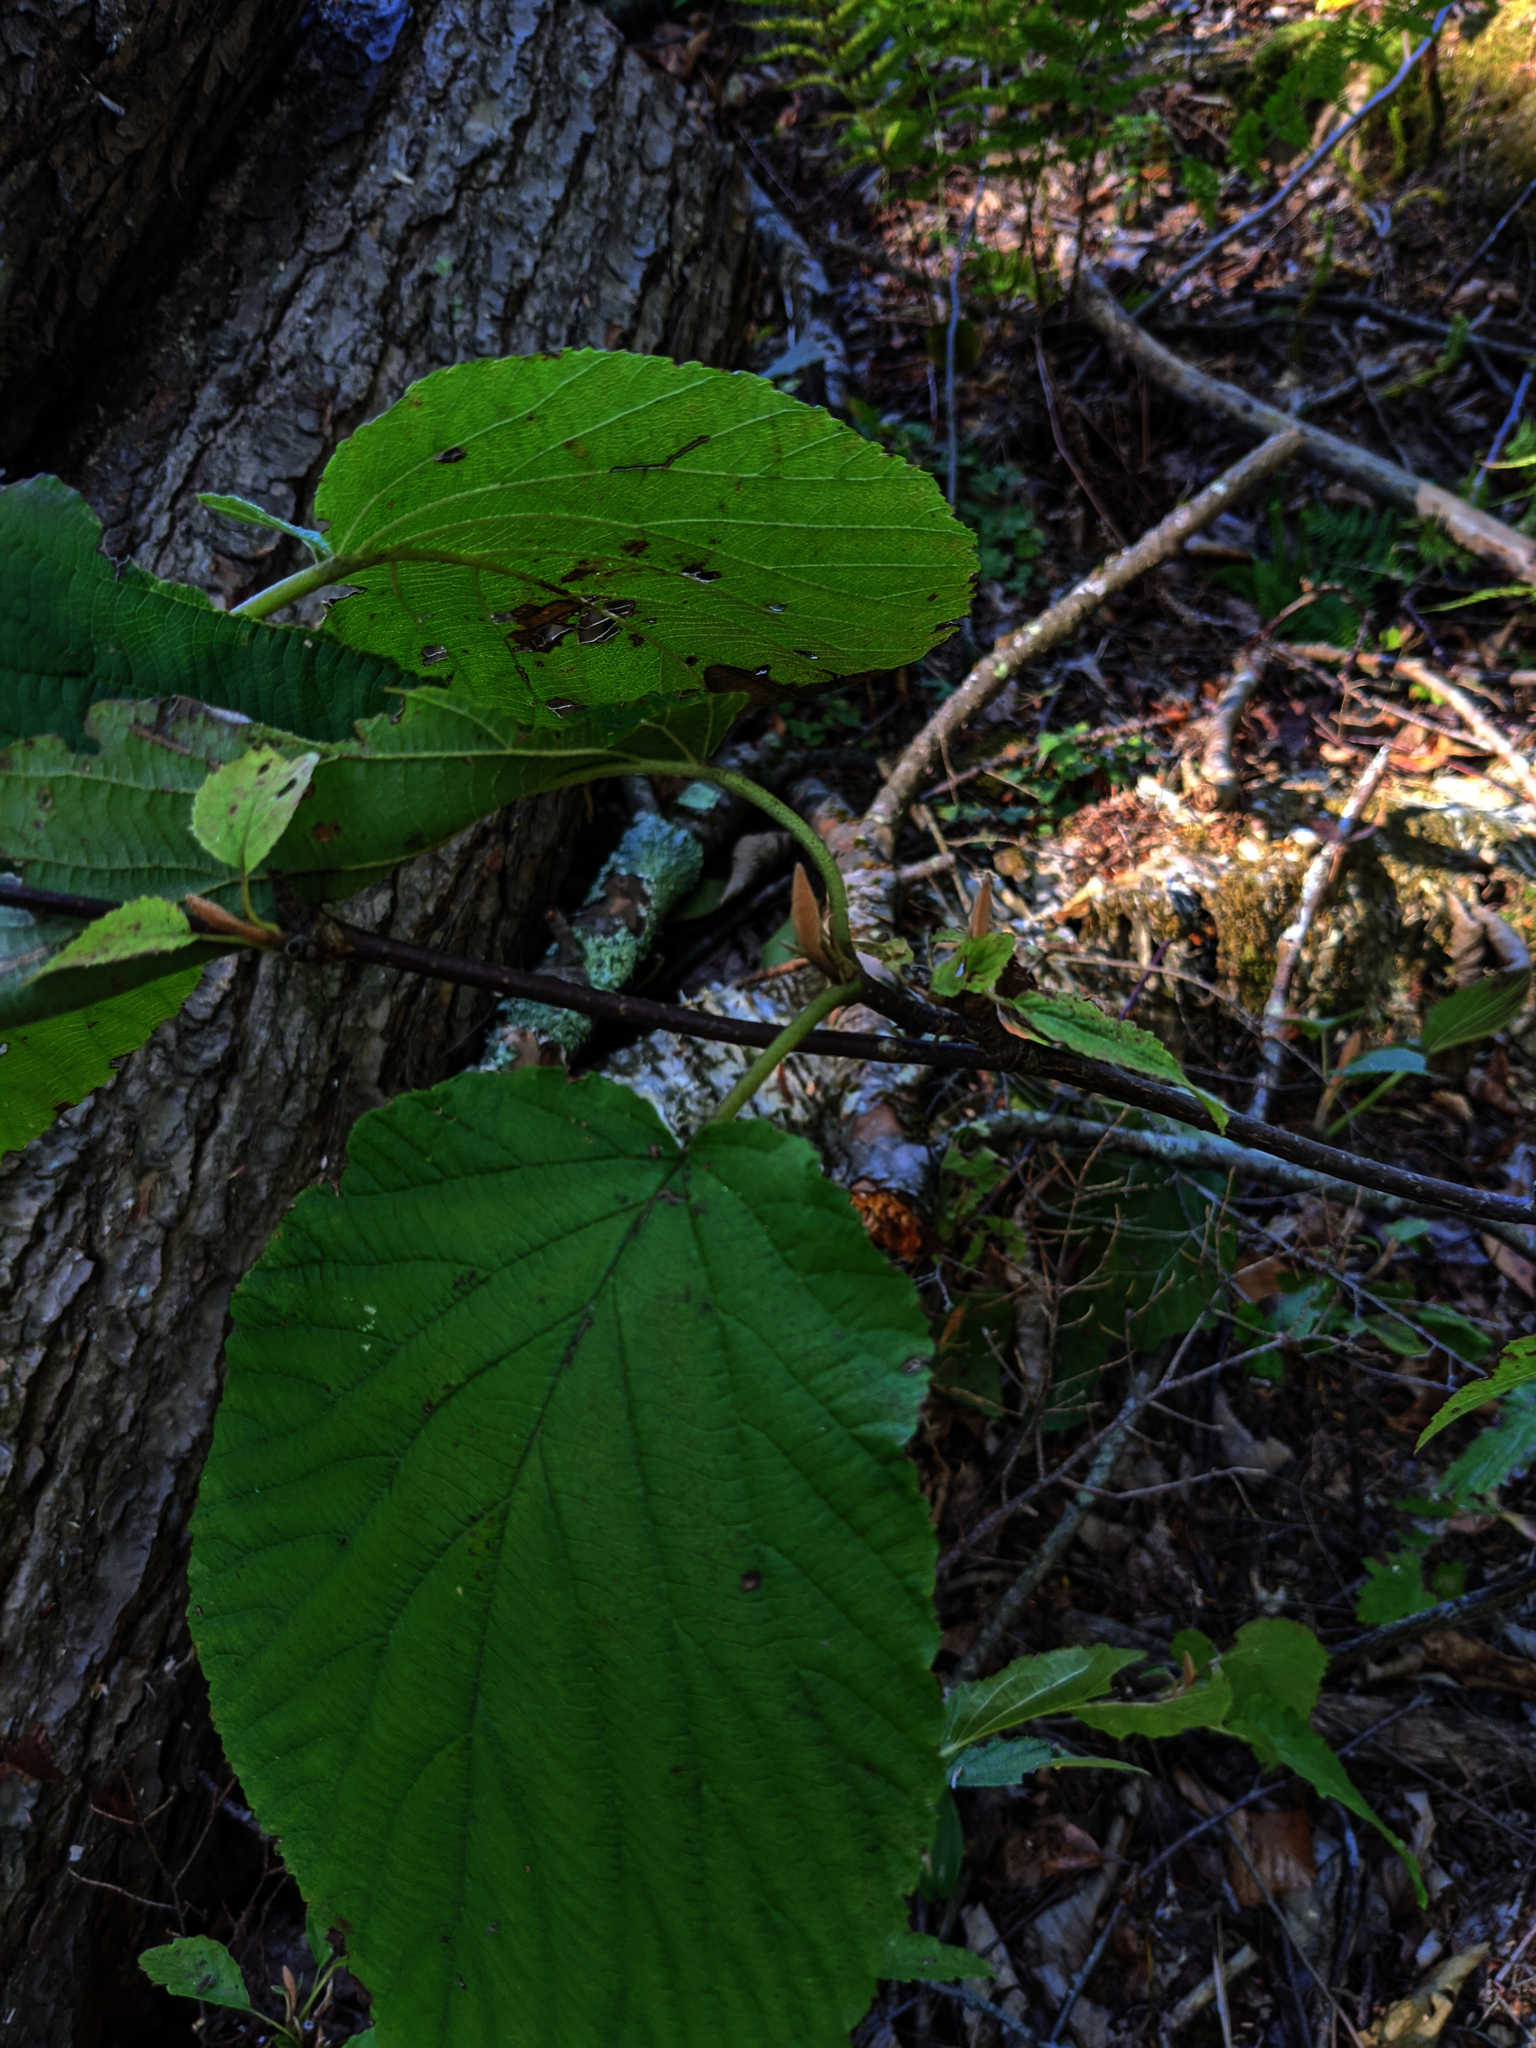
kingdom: Plantae
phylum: Tracheophyta
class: Magnoliopsida
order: Dipsacales
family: Viburnaceae
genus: Viburnum
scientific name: Viburnum lantanoides
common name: Hobblebush
